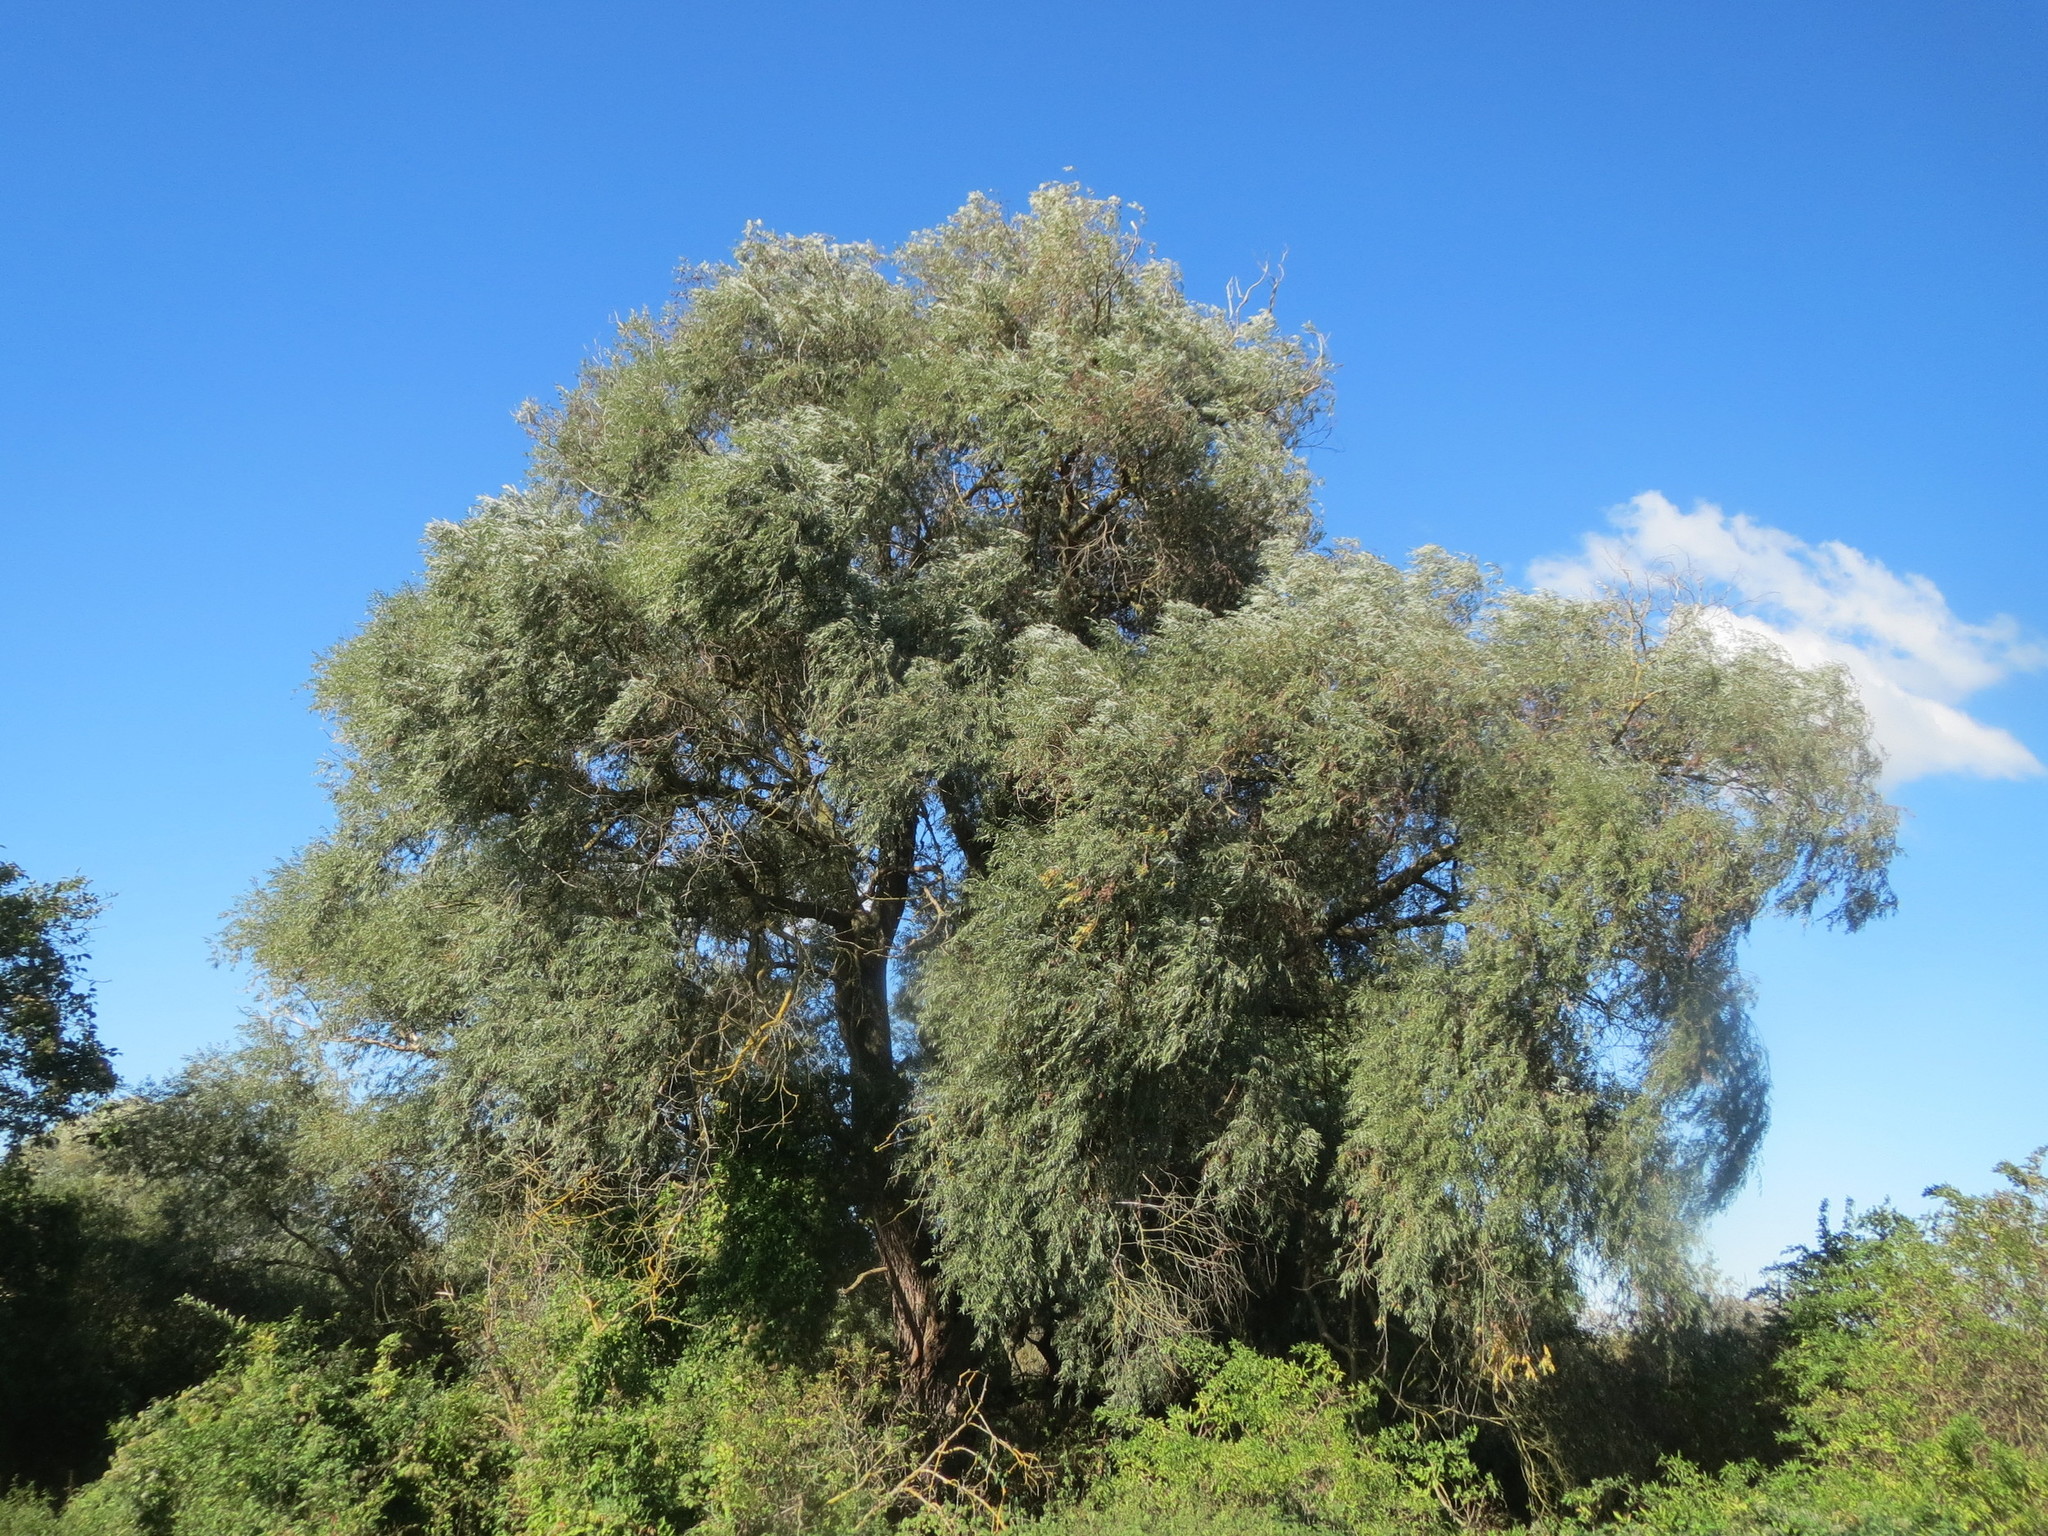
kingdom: Plantae
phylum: Tracheophyta
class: Magnoliopsida
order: Malpighiales
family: Salicaceae
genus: Salix
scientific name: Salix alba
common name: White willow
